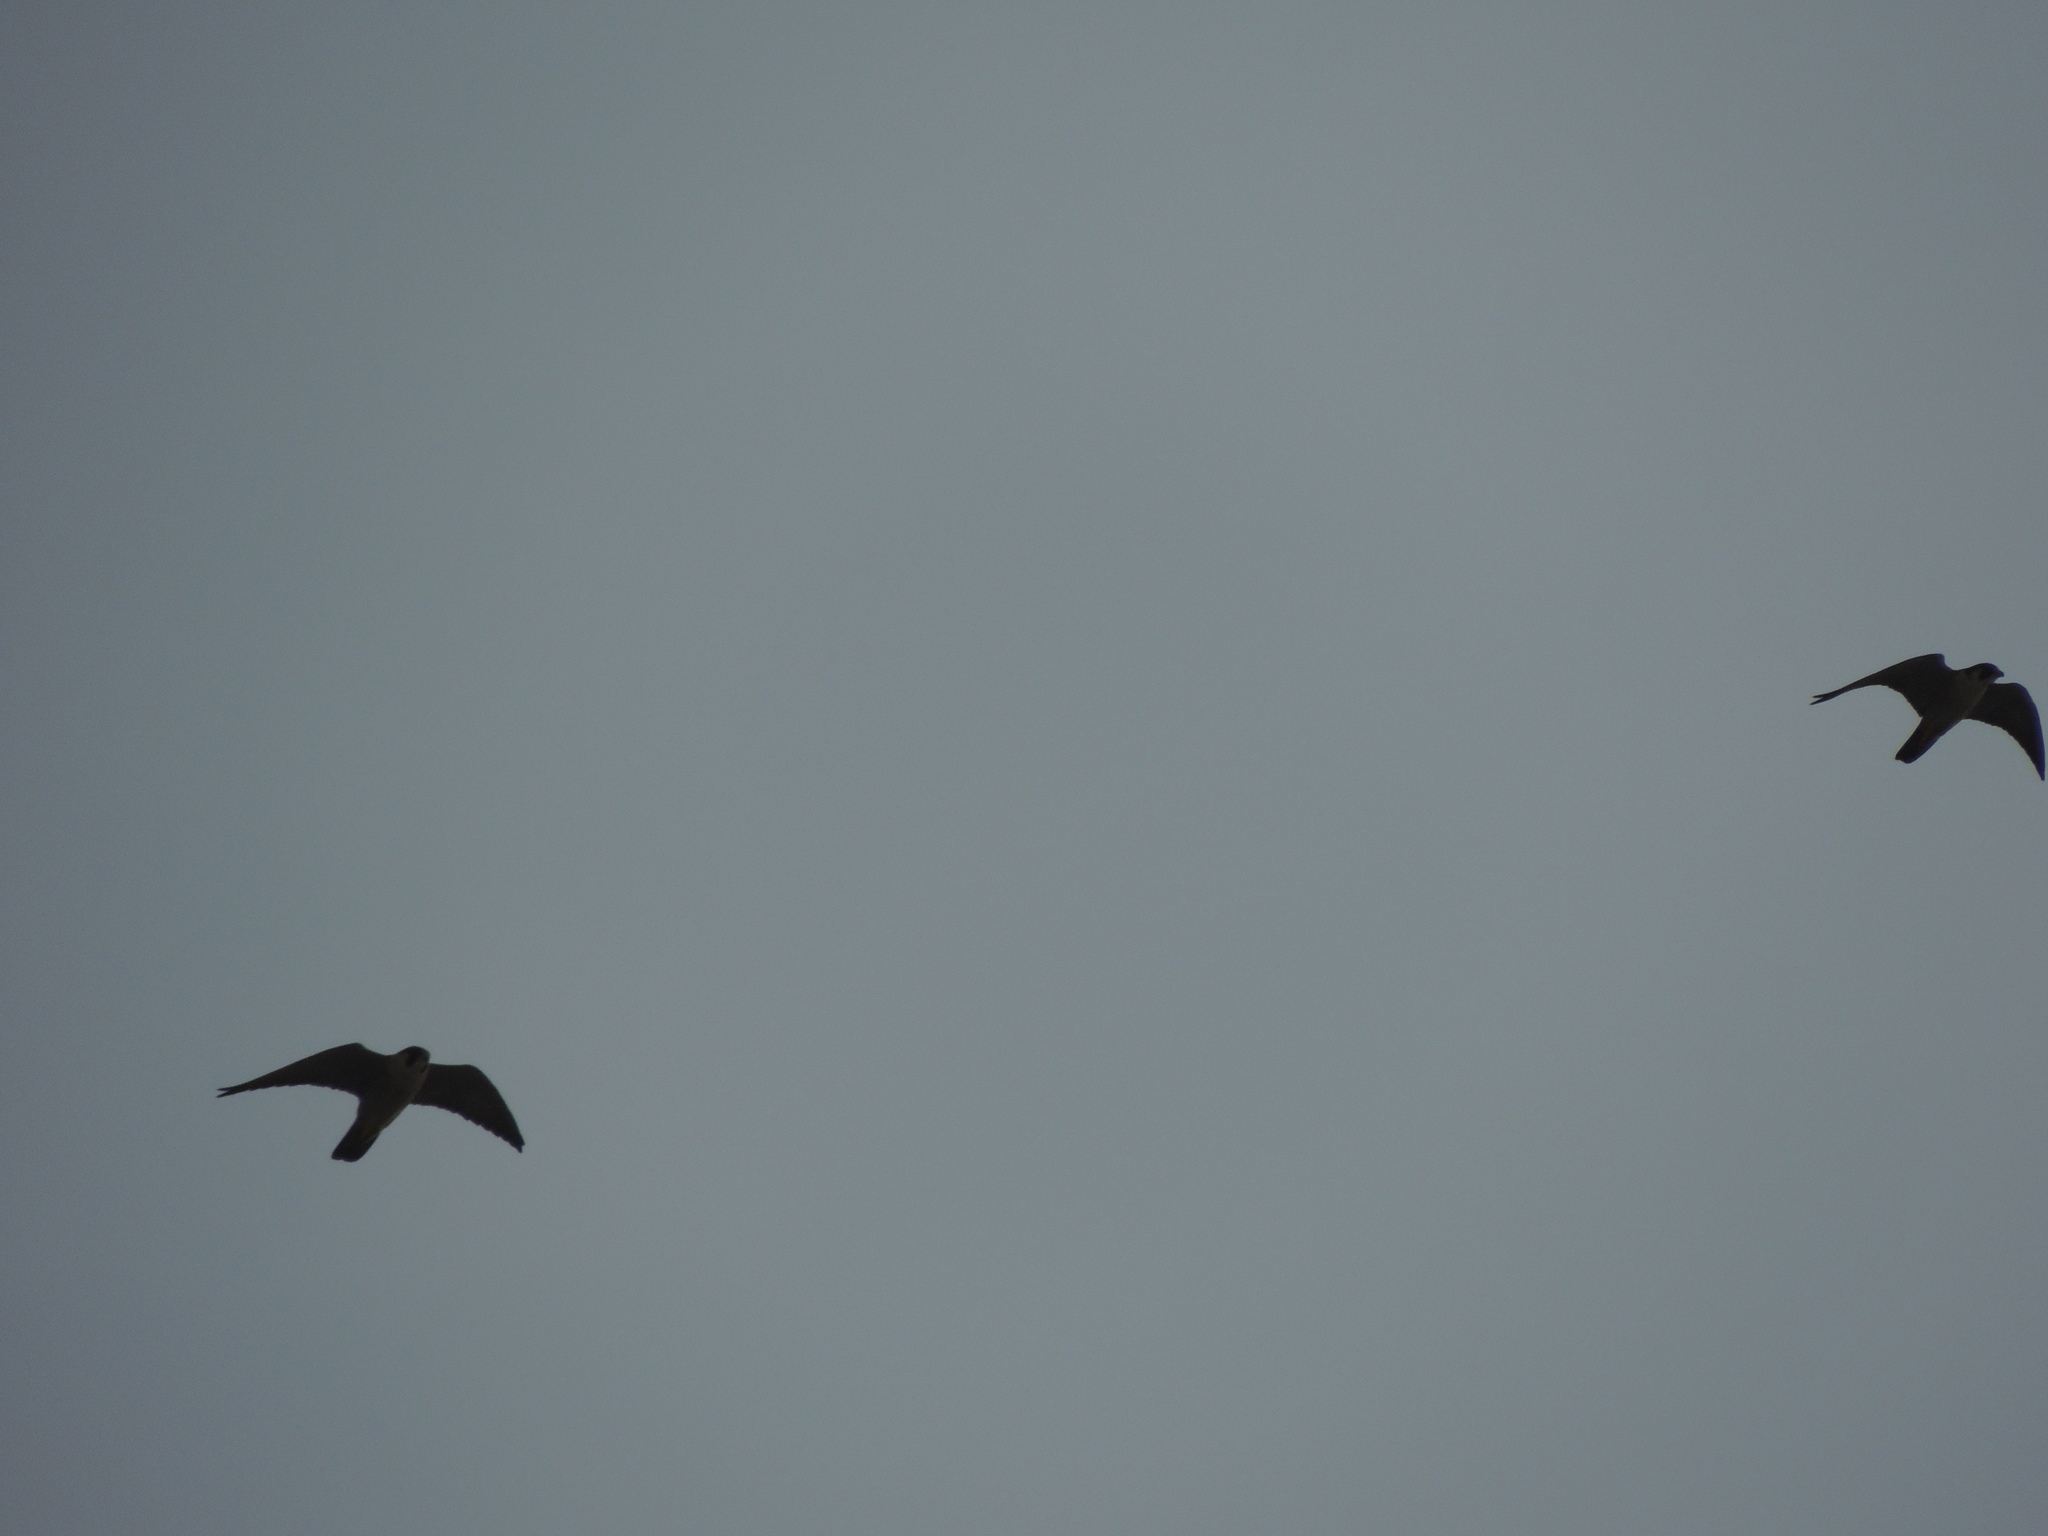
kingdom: Animalia
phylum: Chordata
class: Aves
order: Falconiformes
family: Falconidae
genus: Falco
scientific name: Falco peregrinus
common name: Peregrine falcon
